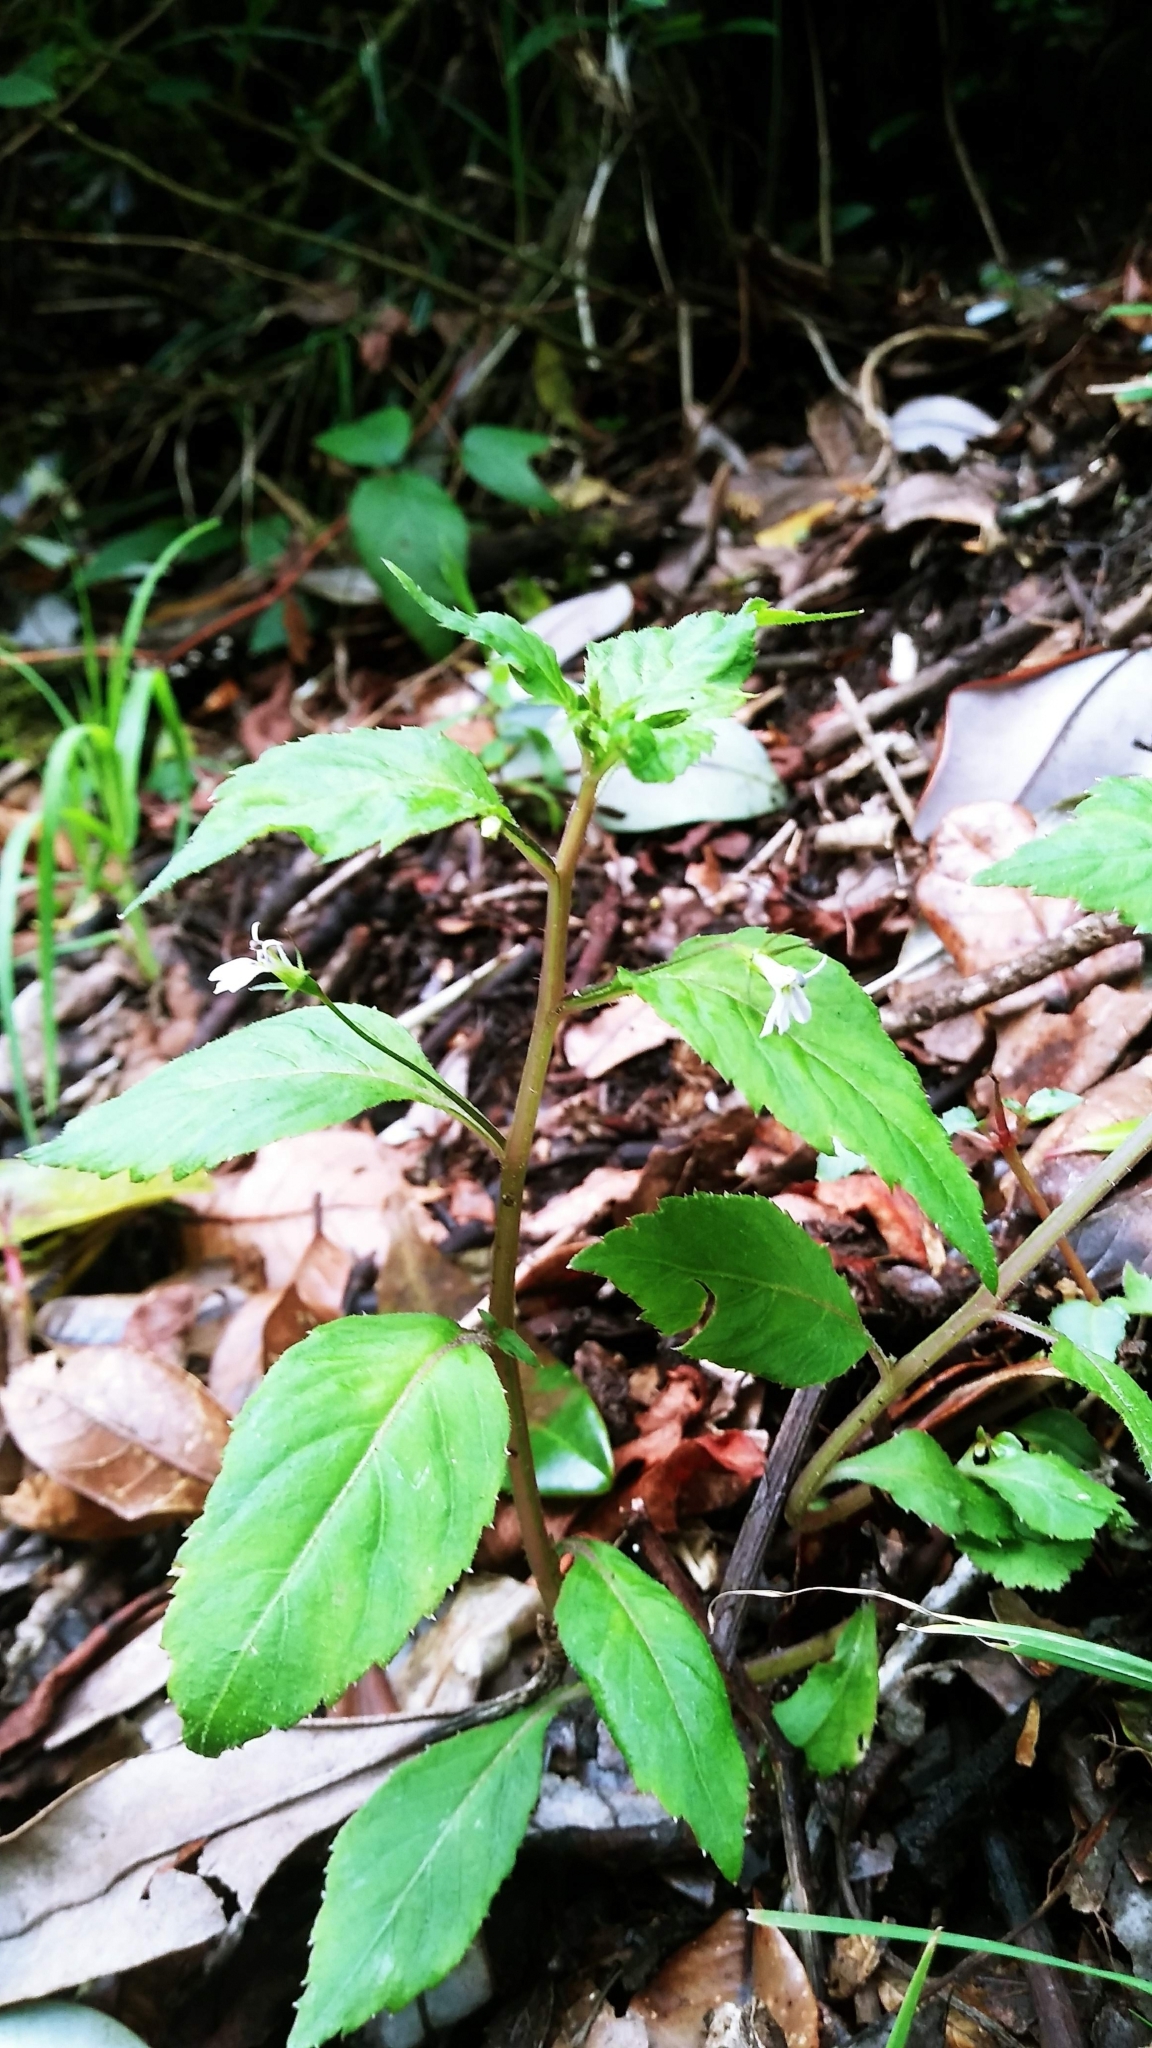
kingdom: Plantae
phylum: Tracheophyta
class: Magnoliopsida
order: Asterales
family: Campanulaceae
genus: Lobelia
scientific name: Lobelia longicaulis
